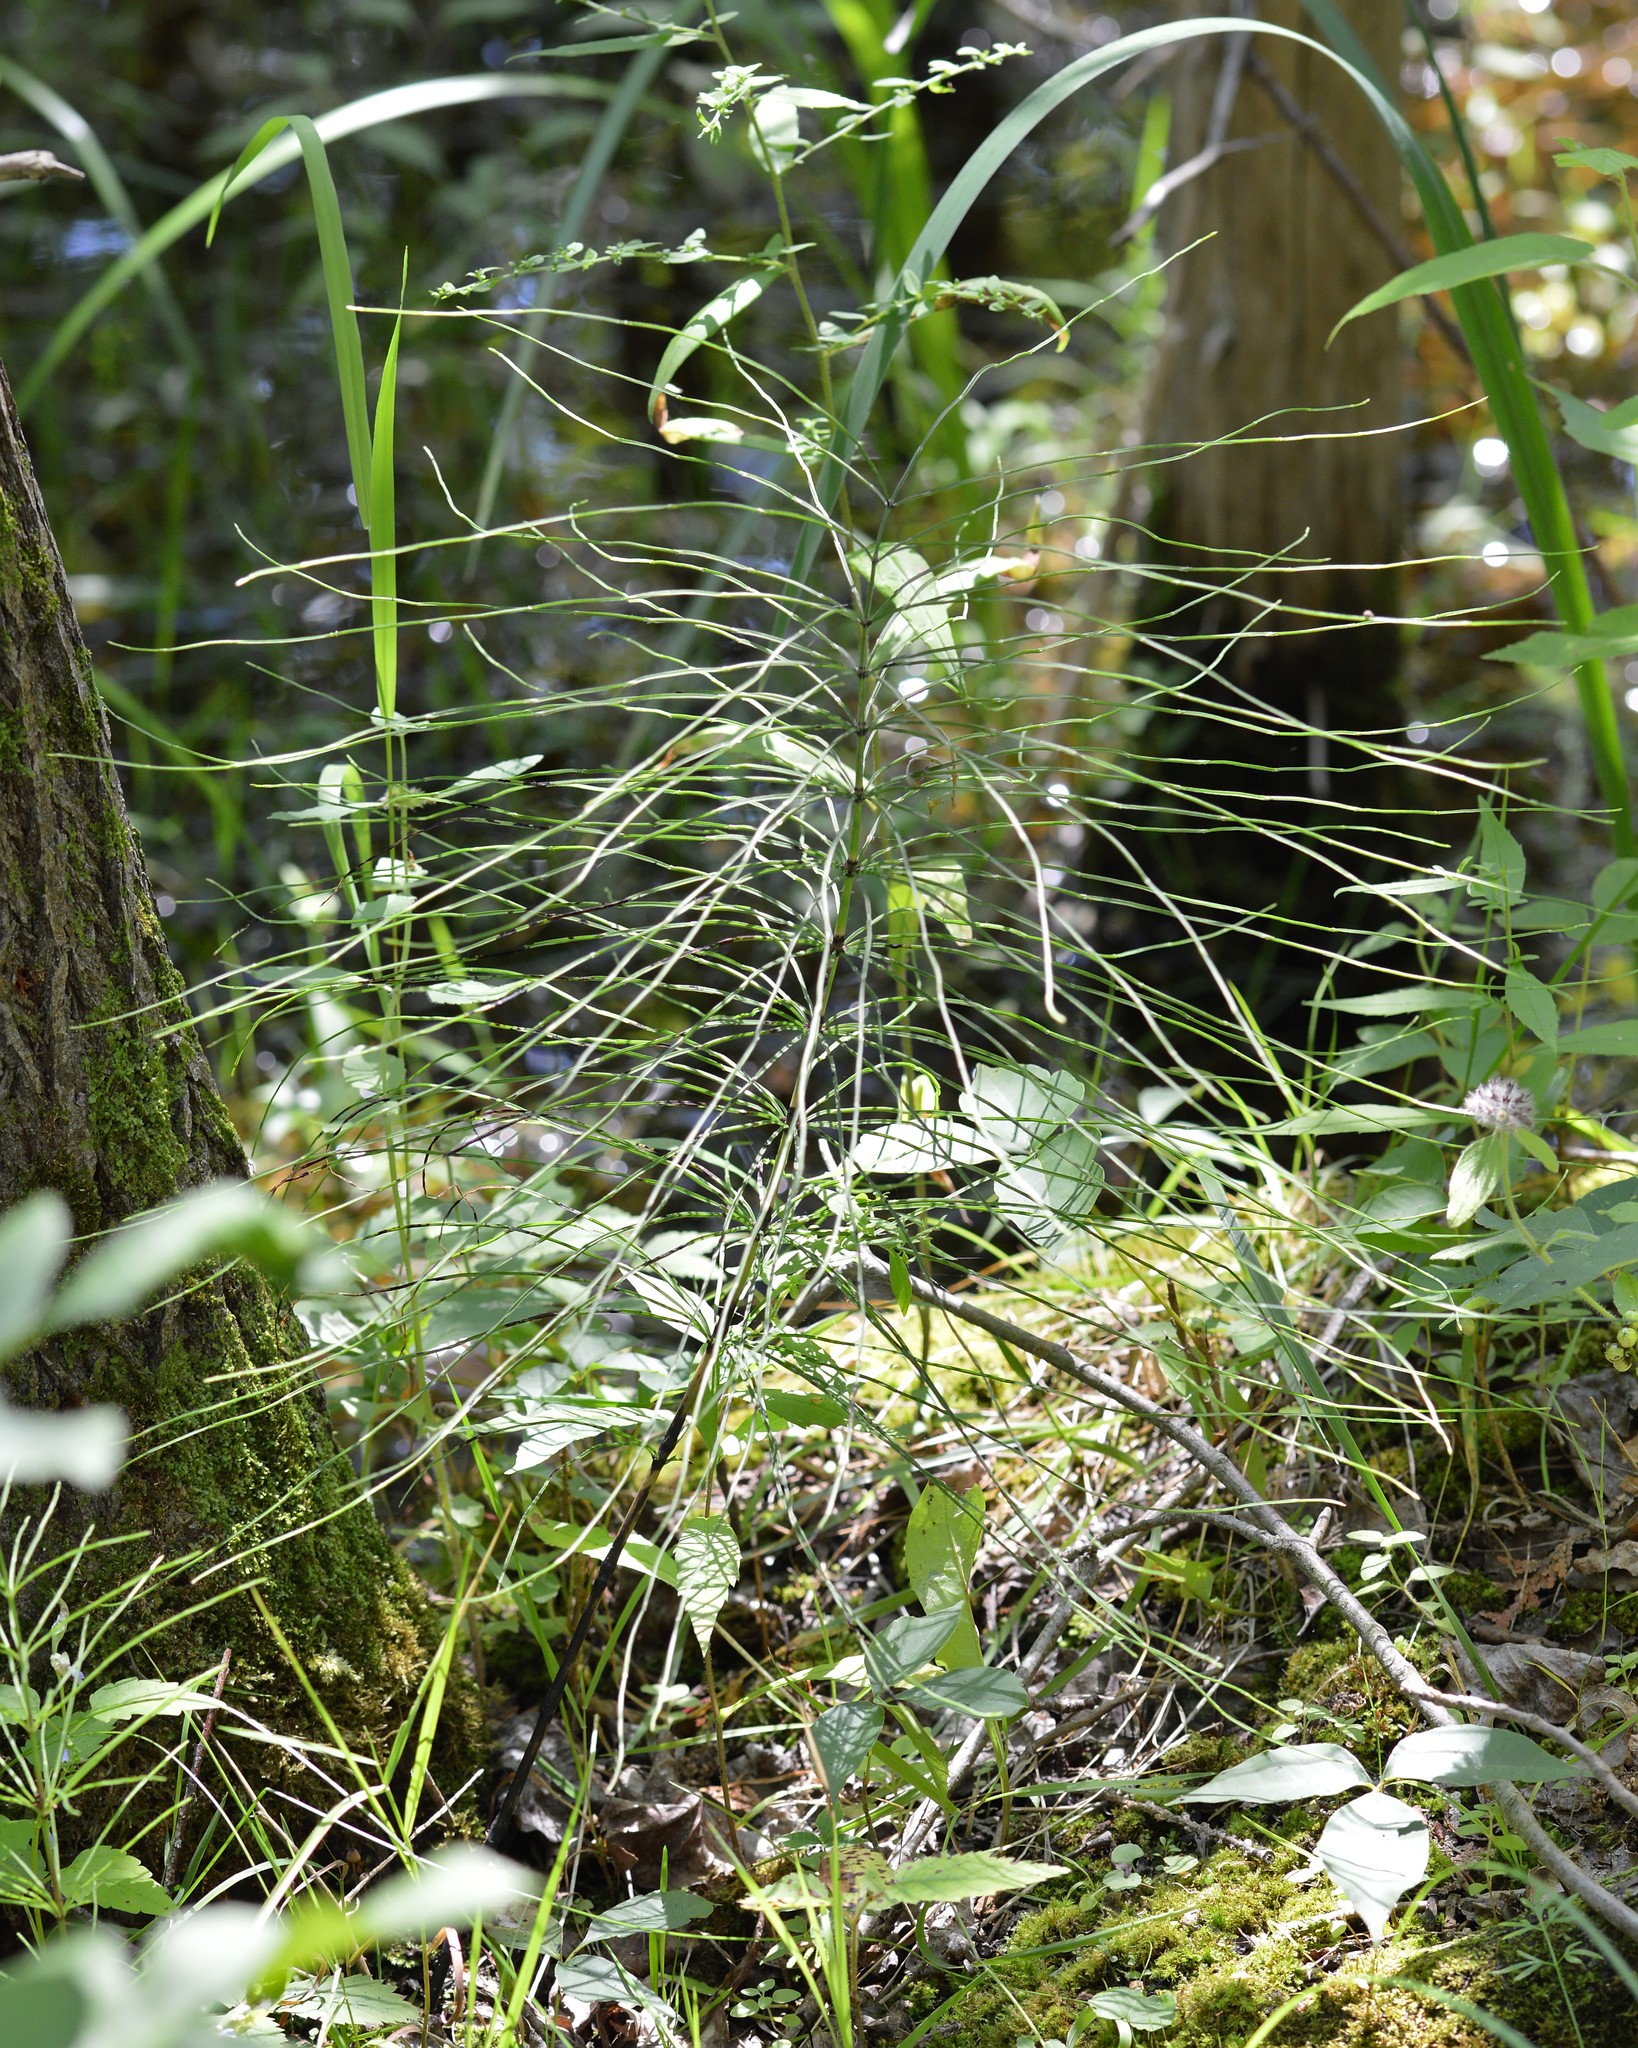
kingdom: Plantae
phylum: Tracheophyta
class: Polypodiopsida
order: Equisetales
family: Equisetaceae
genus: Equisetum
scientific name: Equisetum arvense
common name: Field horsetail
